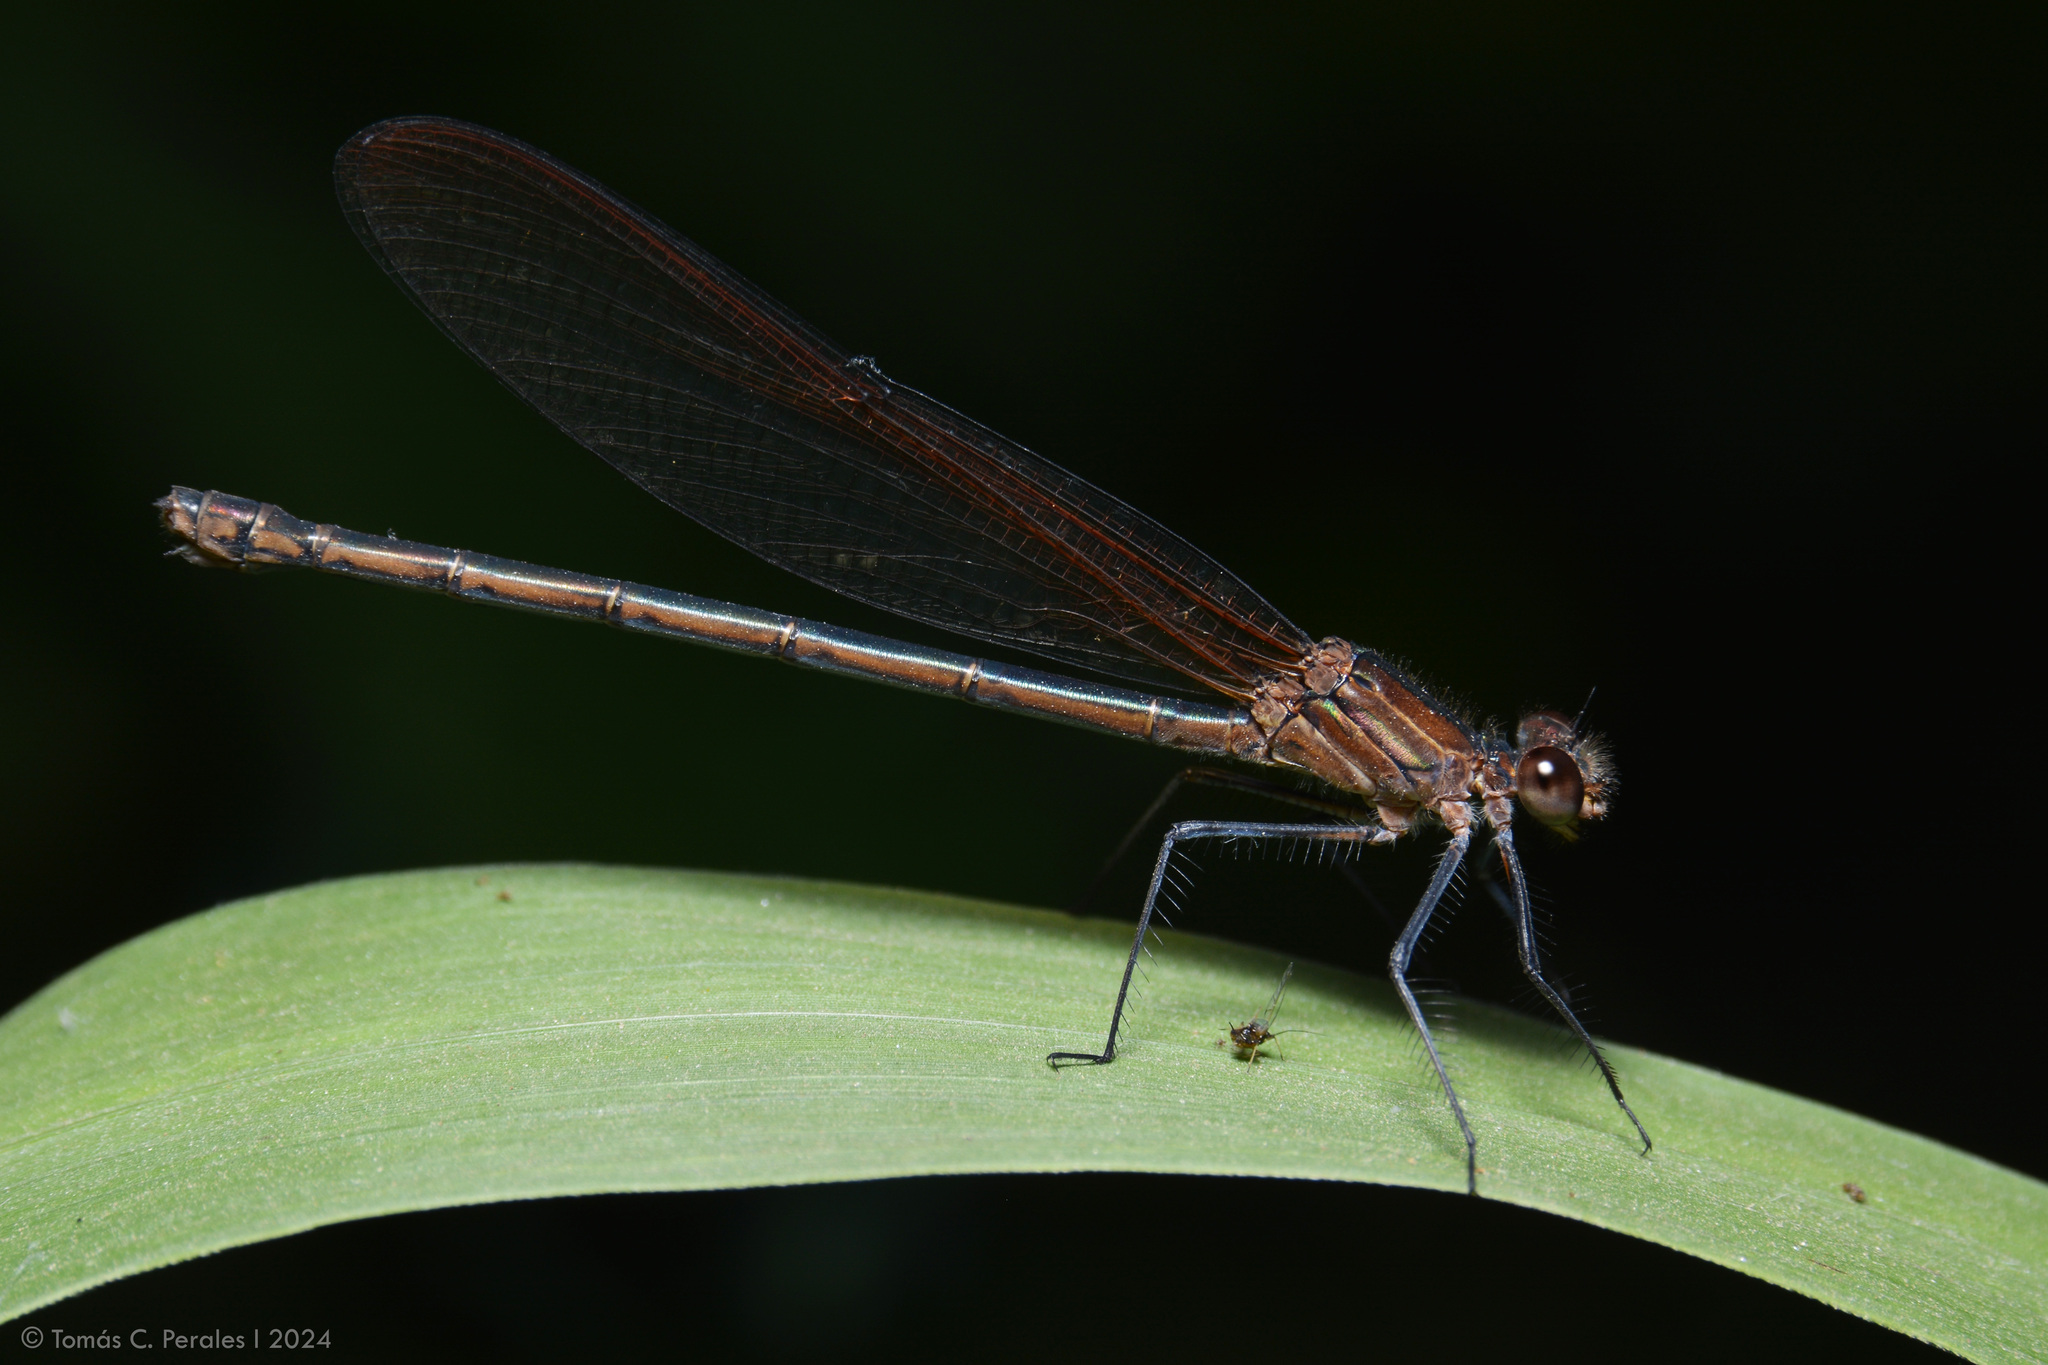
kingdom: Animalia
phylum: Arthropoda
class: Insecta
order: Odonata
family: Calopterygidae
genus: Hetaerina
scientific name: Hetaerina rosea
